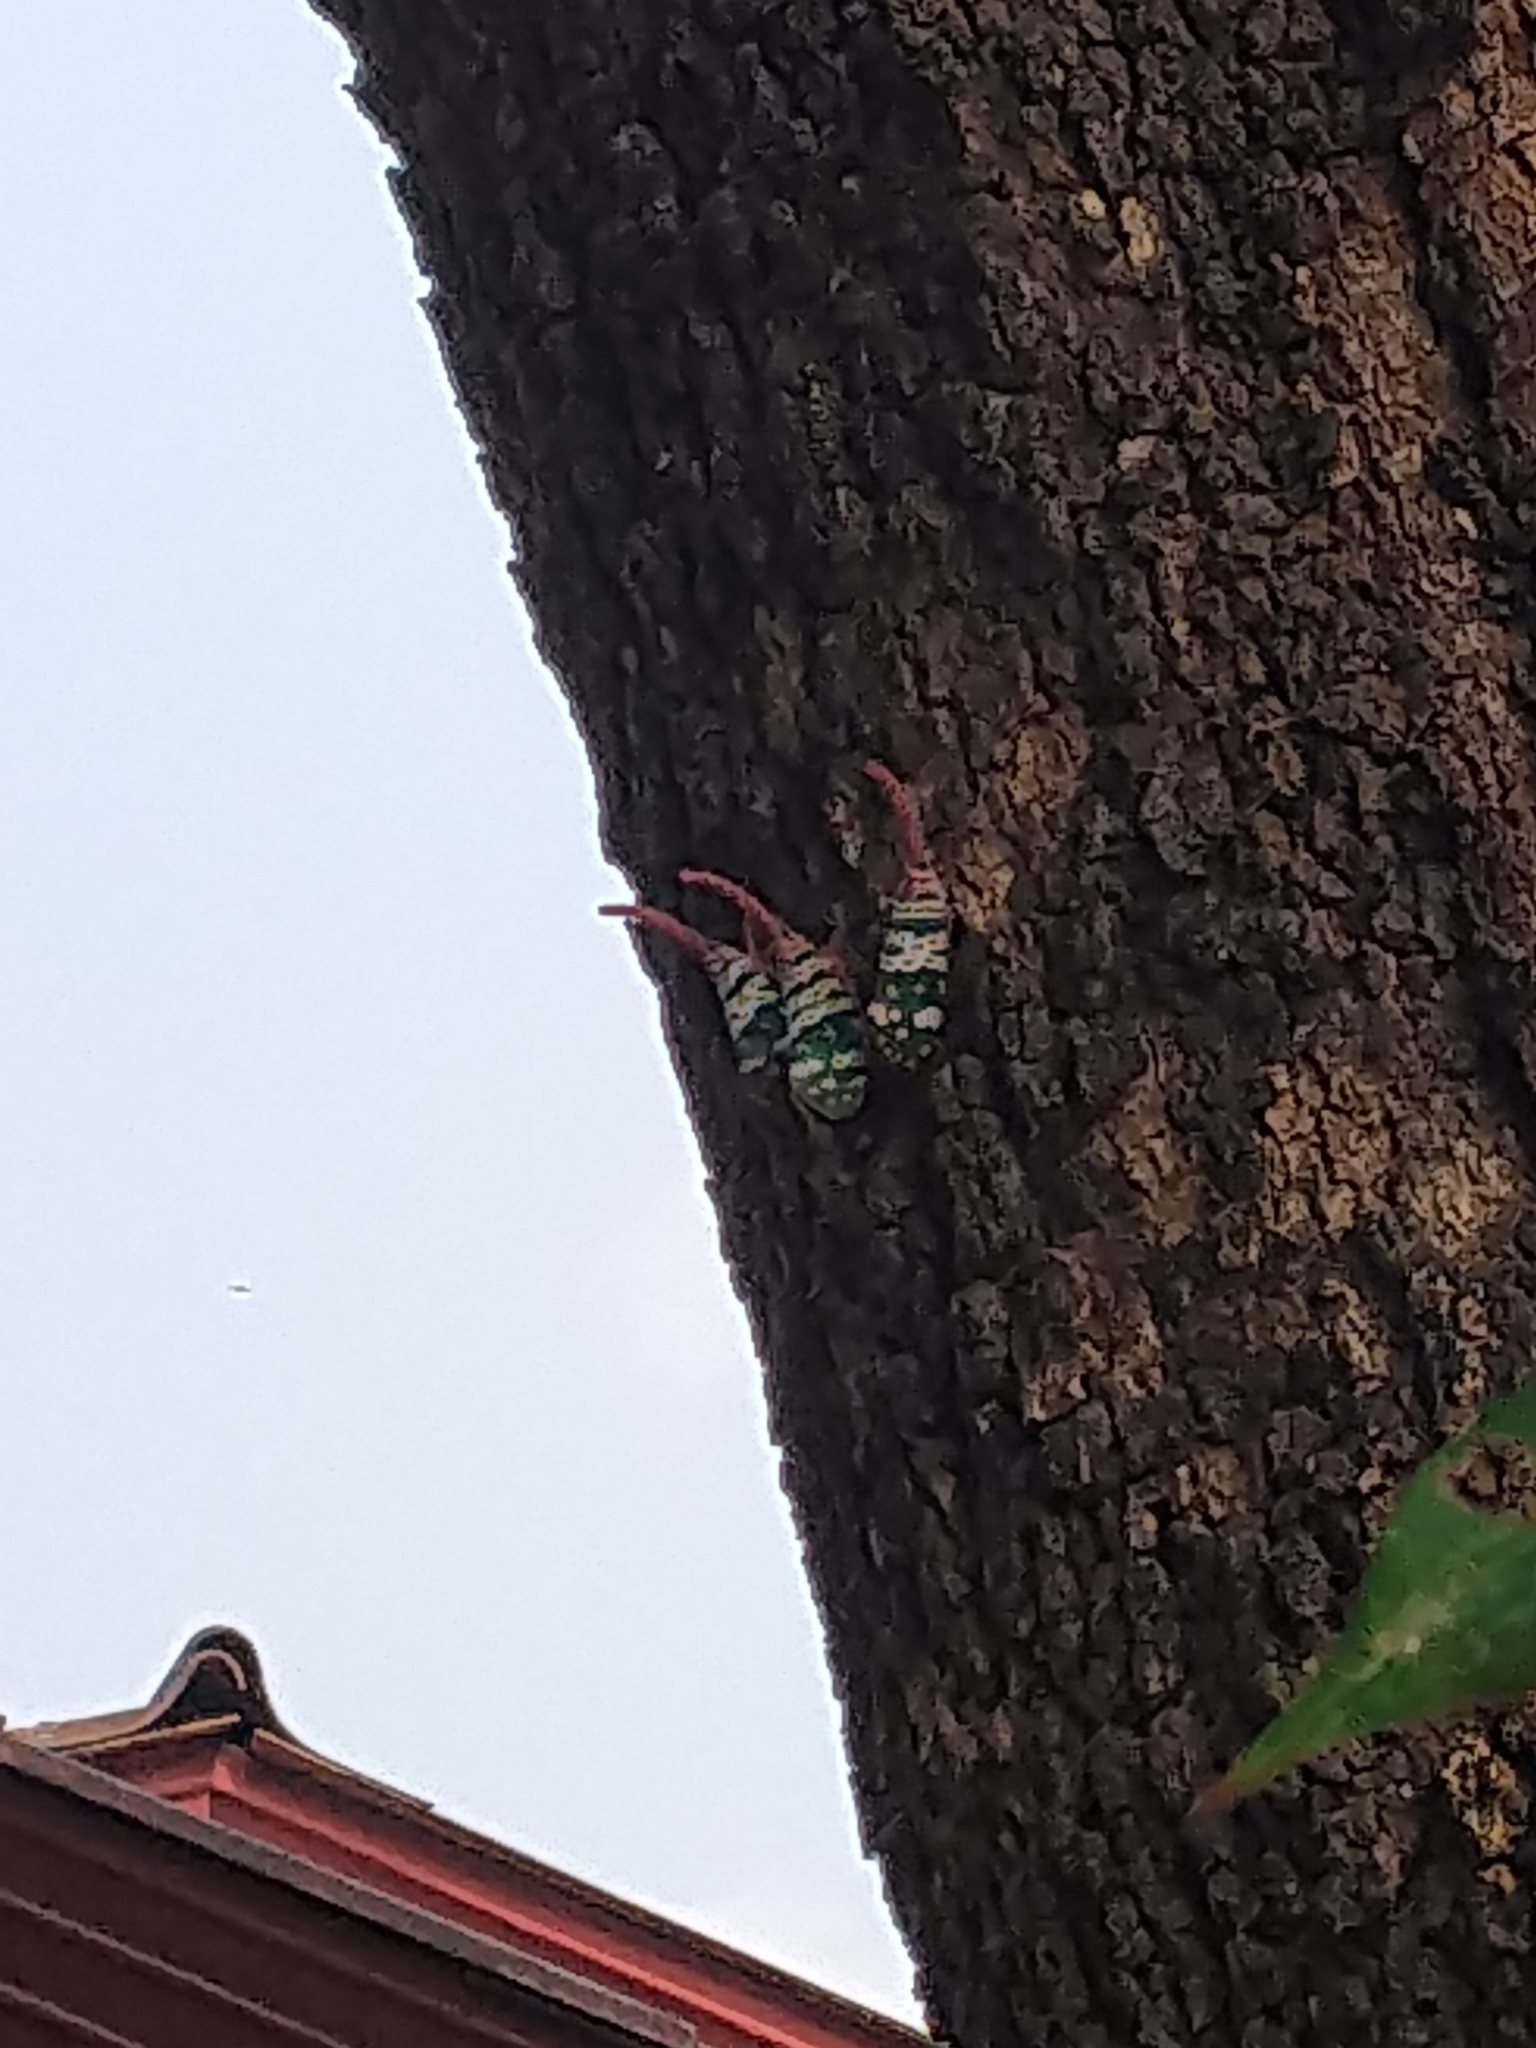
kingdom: Animalia
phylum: Arthropoda
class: Insecta
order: Hemiptera
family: Fulgoridae
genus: Pyrops
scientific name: Pyrops candelaria
